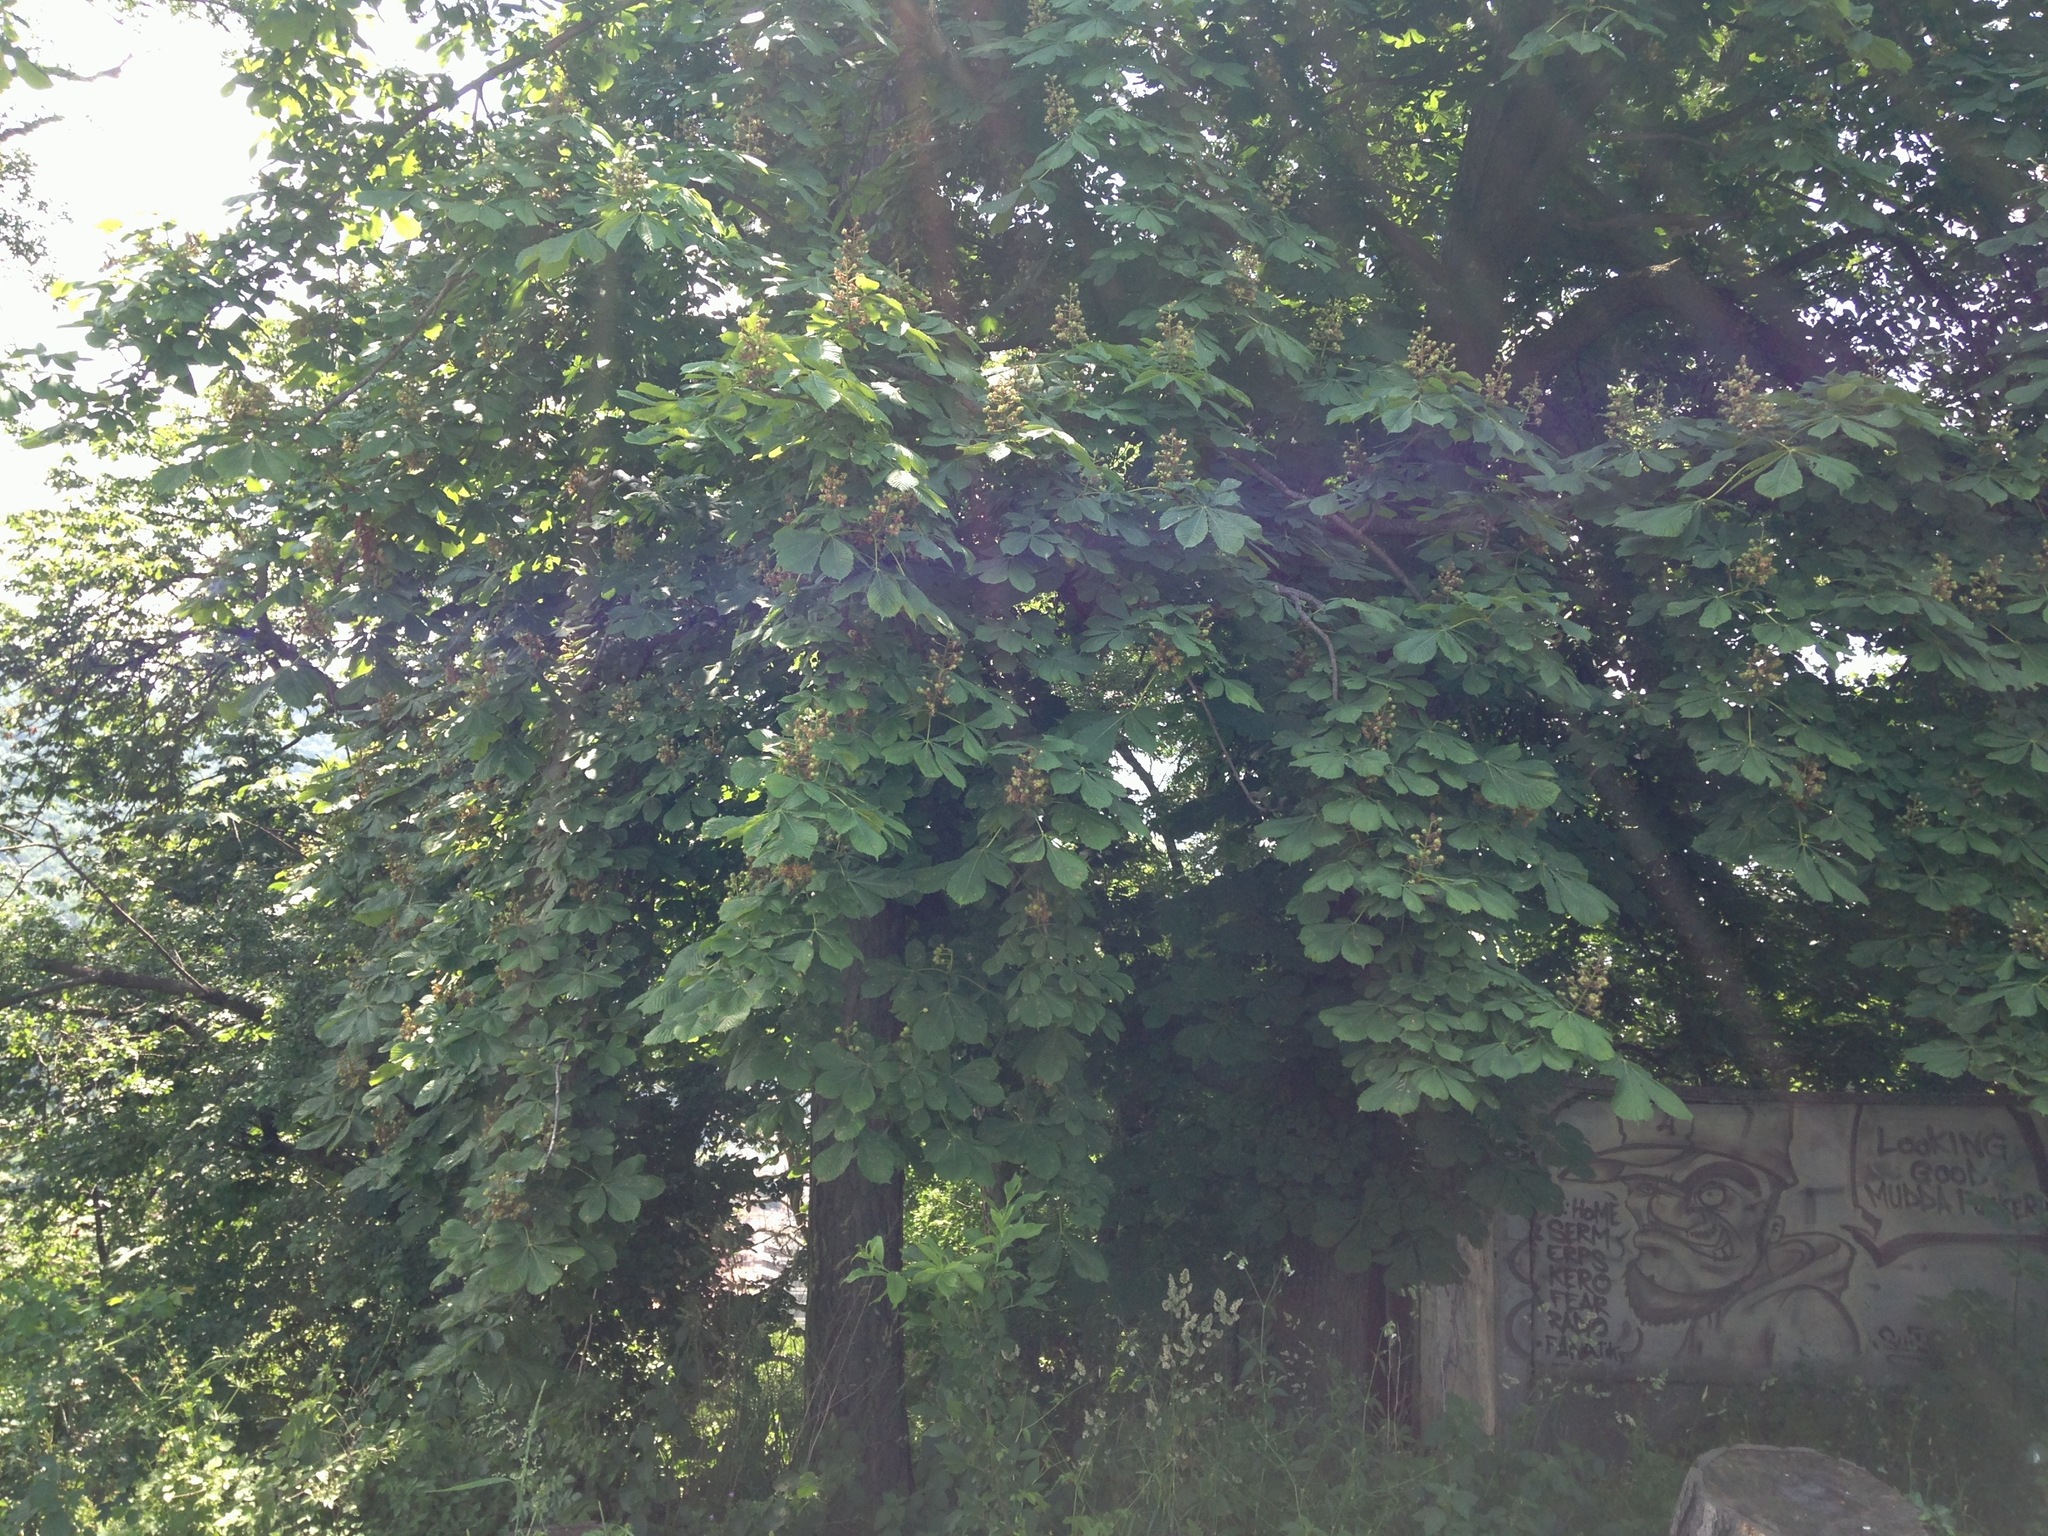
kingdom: Plantae
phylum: Tracheophyta
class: Magnoliopsida
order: Sapindales
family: Sapindaceae
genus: Aesculus
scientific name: Aesculus hippocastanum
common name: Horse-chestnut
